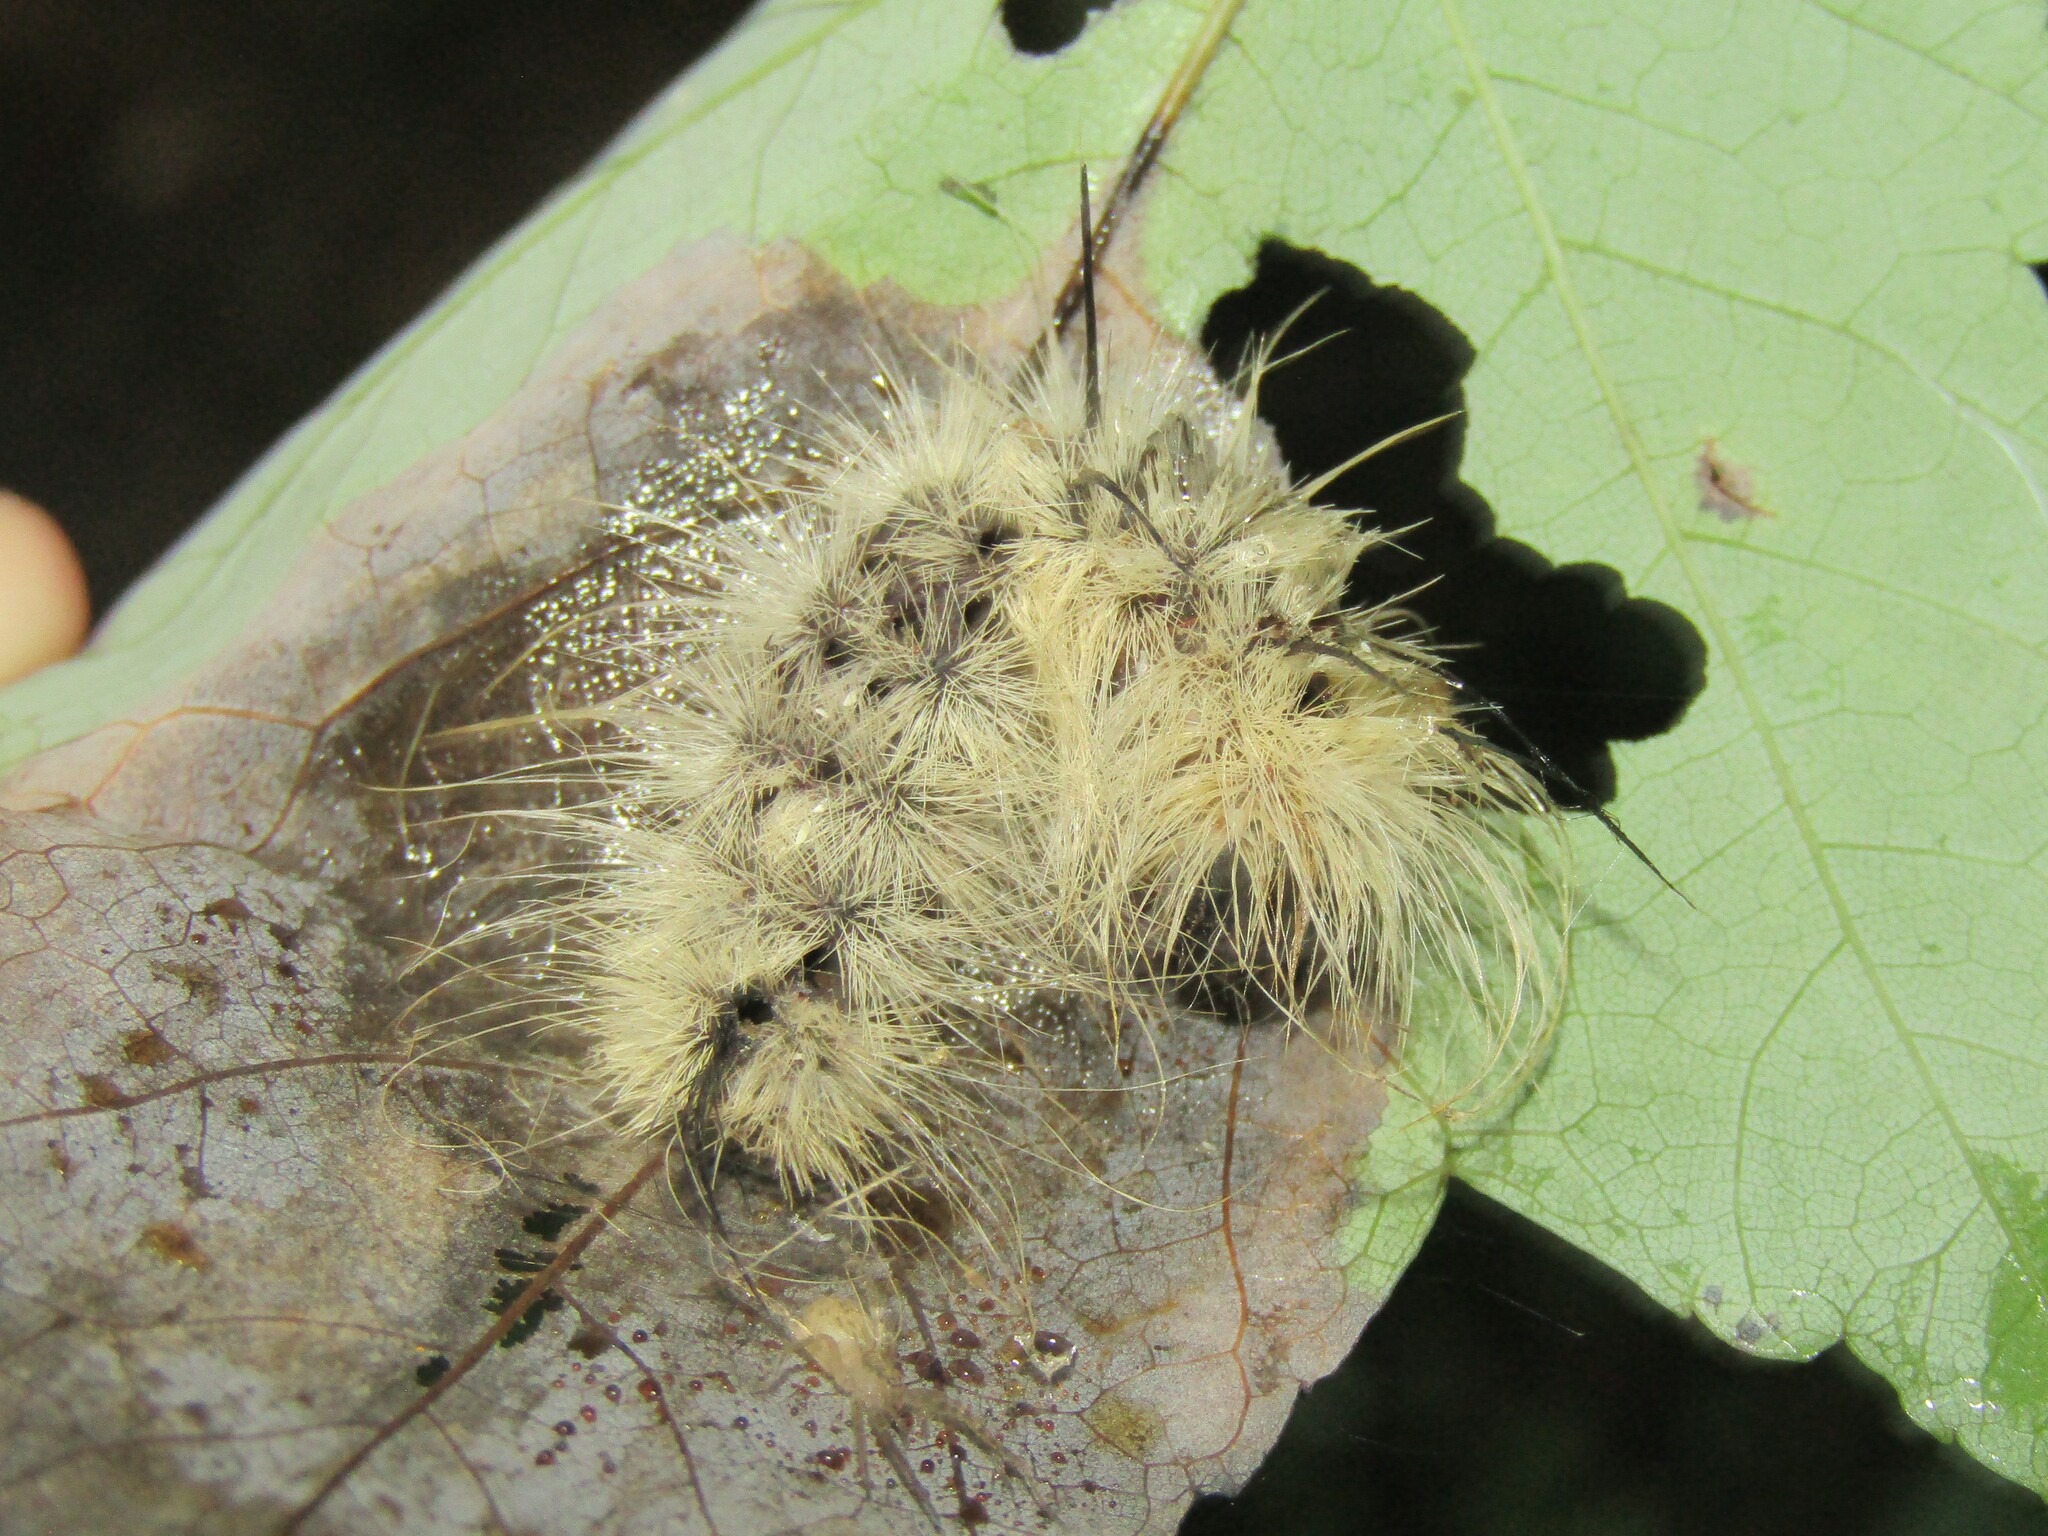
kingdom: Animalia
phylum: Arthropoda
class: Insecta
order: Lepidoptera
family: Noctuidae
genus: Acronicta
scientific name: Acronicta americana
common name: American dagger
